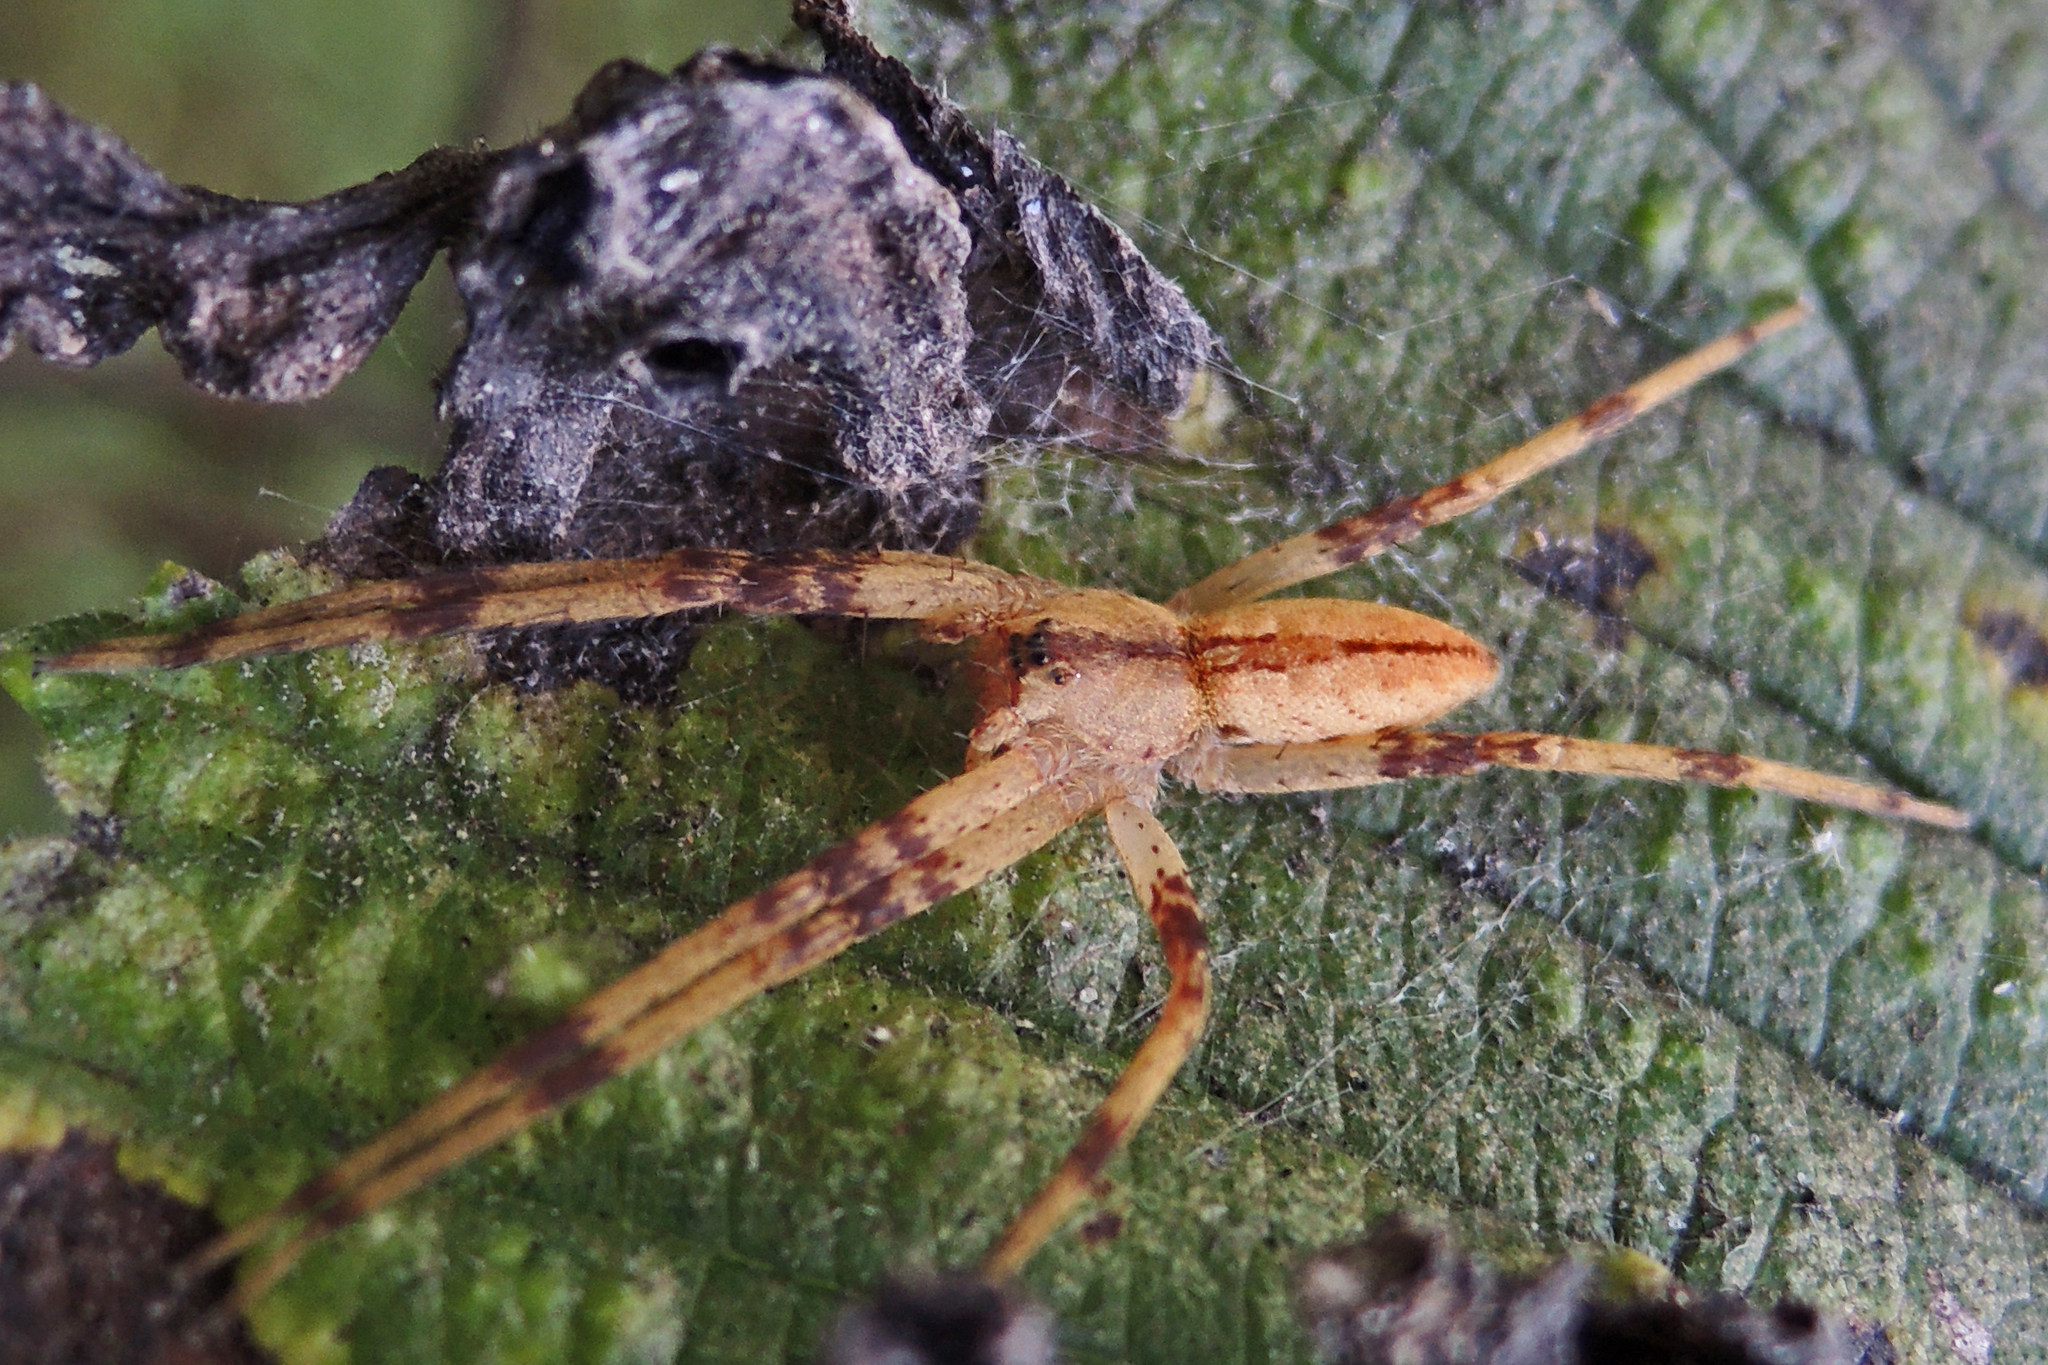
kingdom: Animalia
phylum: Arthropoda
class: Arachnida
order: Araneae
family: Pisauridae
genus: Pisaurina
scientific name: Pisaurina mira
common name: American nursery web spider
